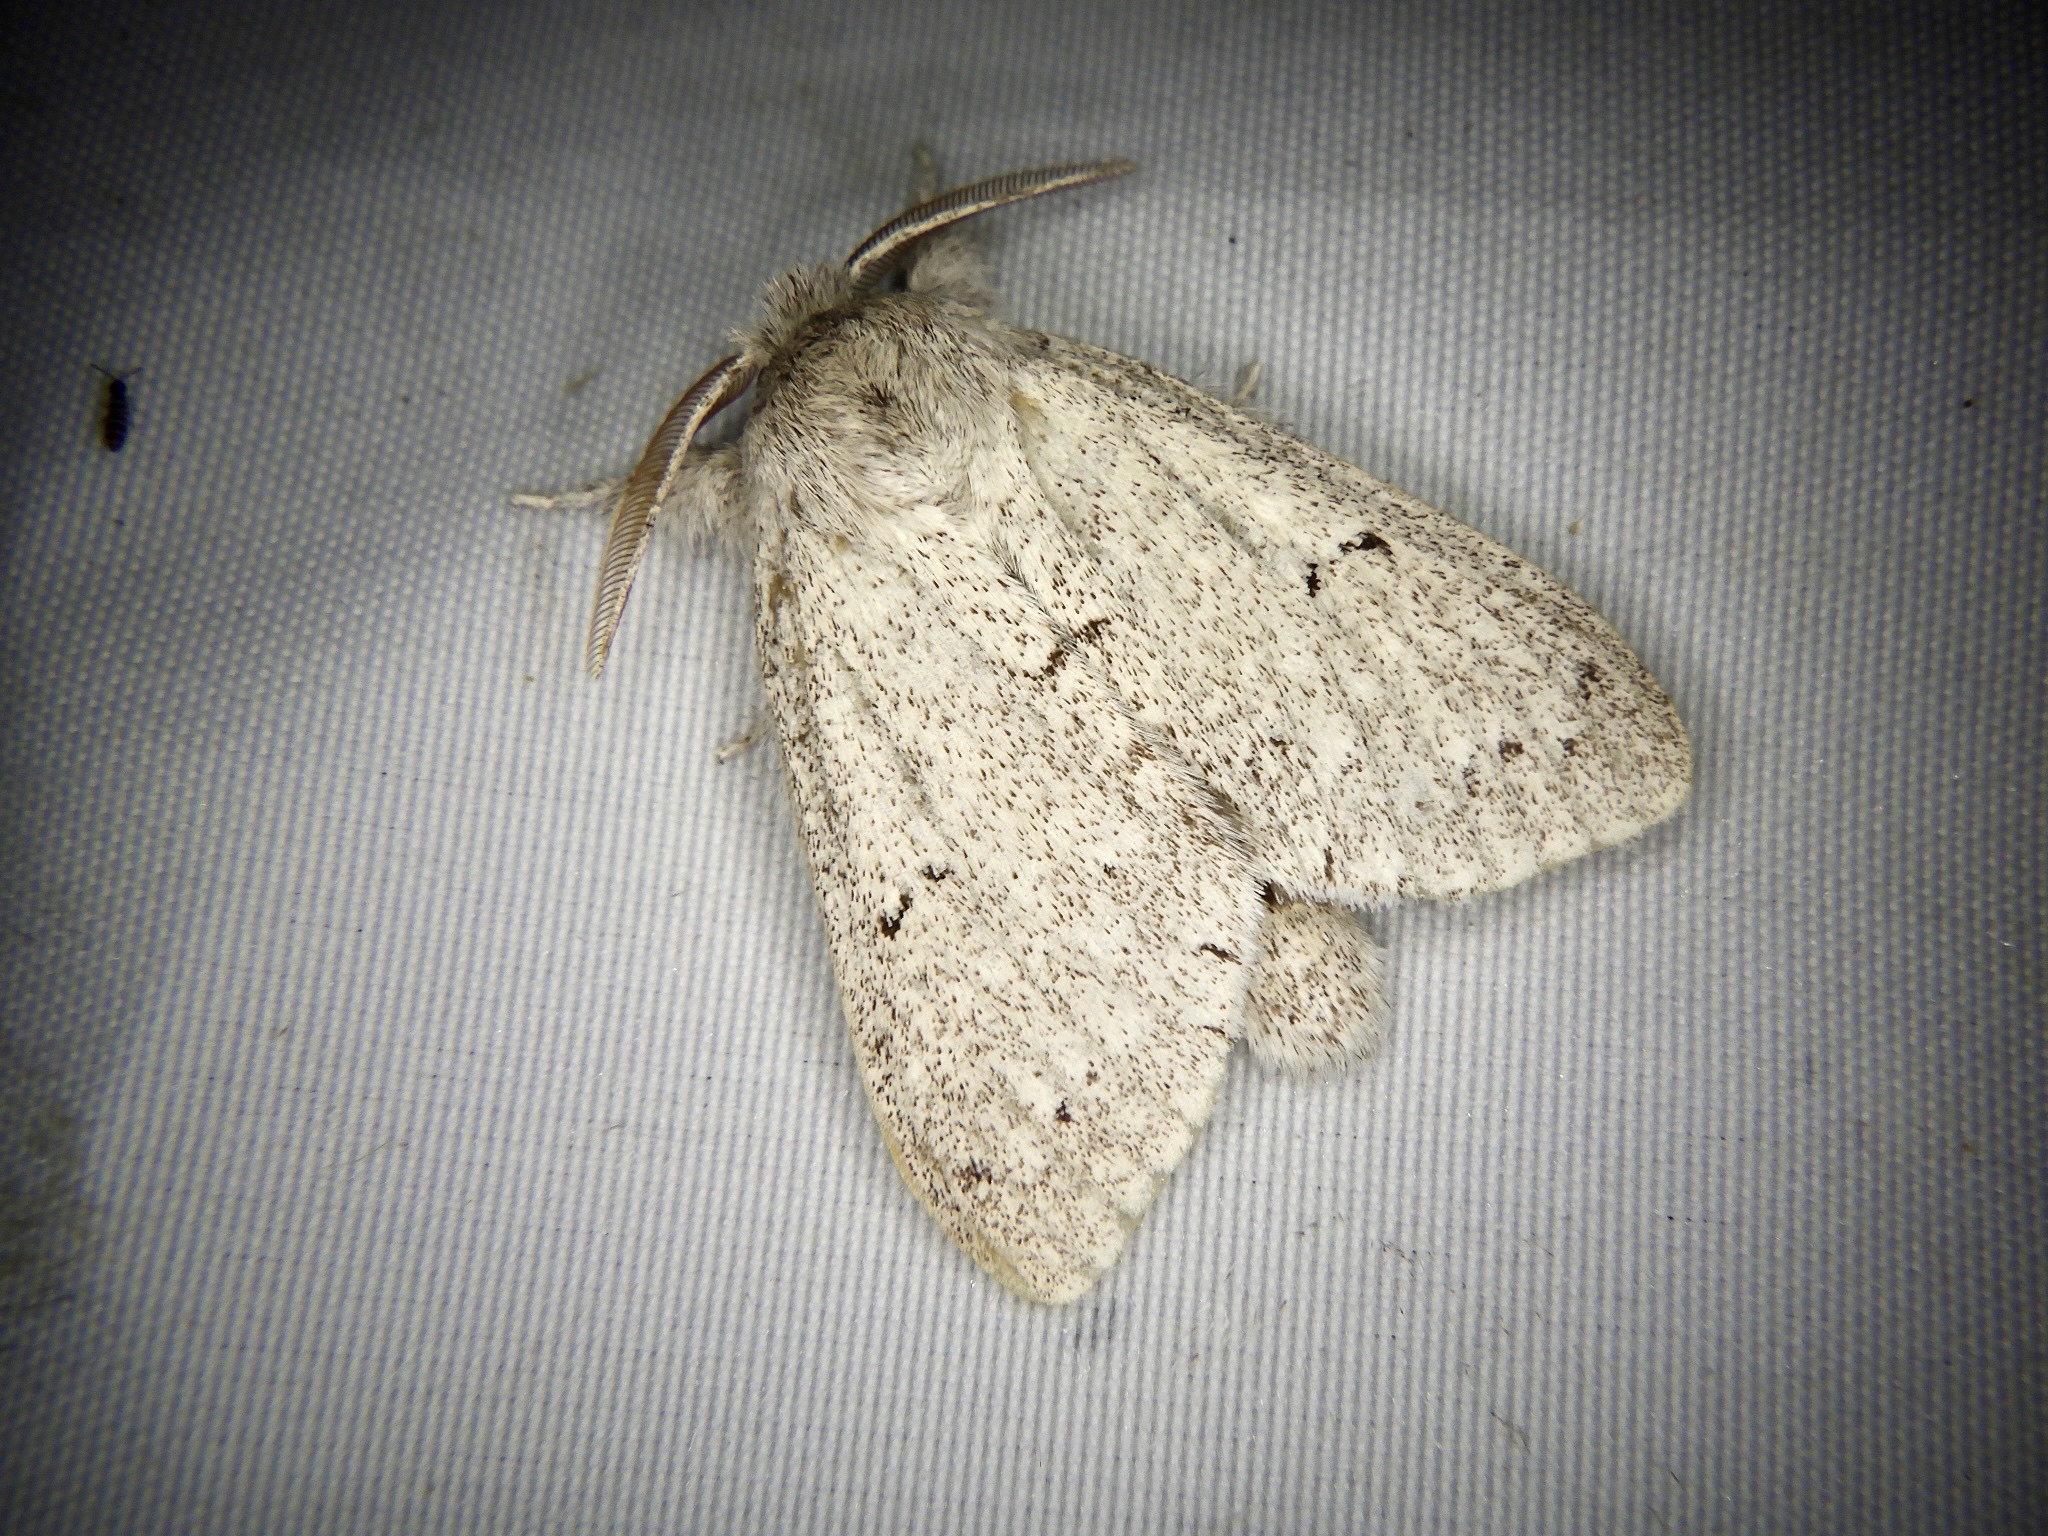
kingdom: Animalia
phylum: Arthropoda
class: Insecta
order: Lepidoptera
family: Notodontidae
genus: Cnethodonta
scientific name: Cnethodonta grisescens
